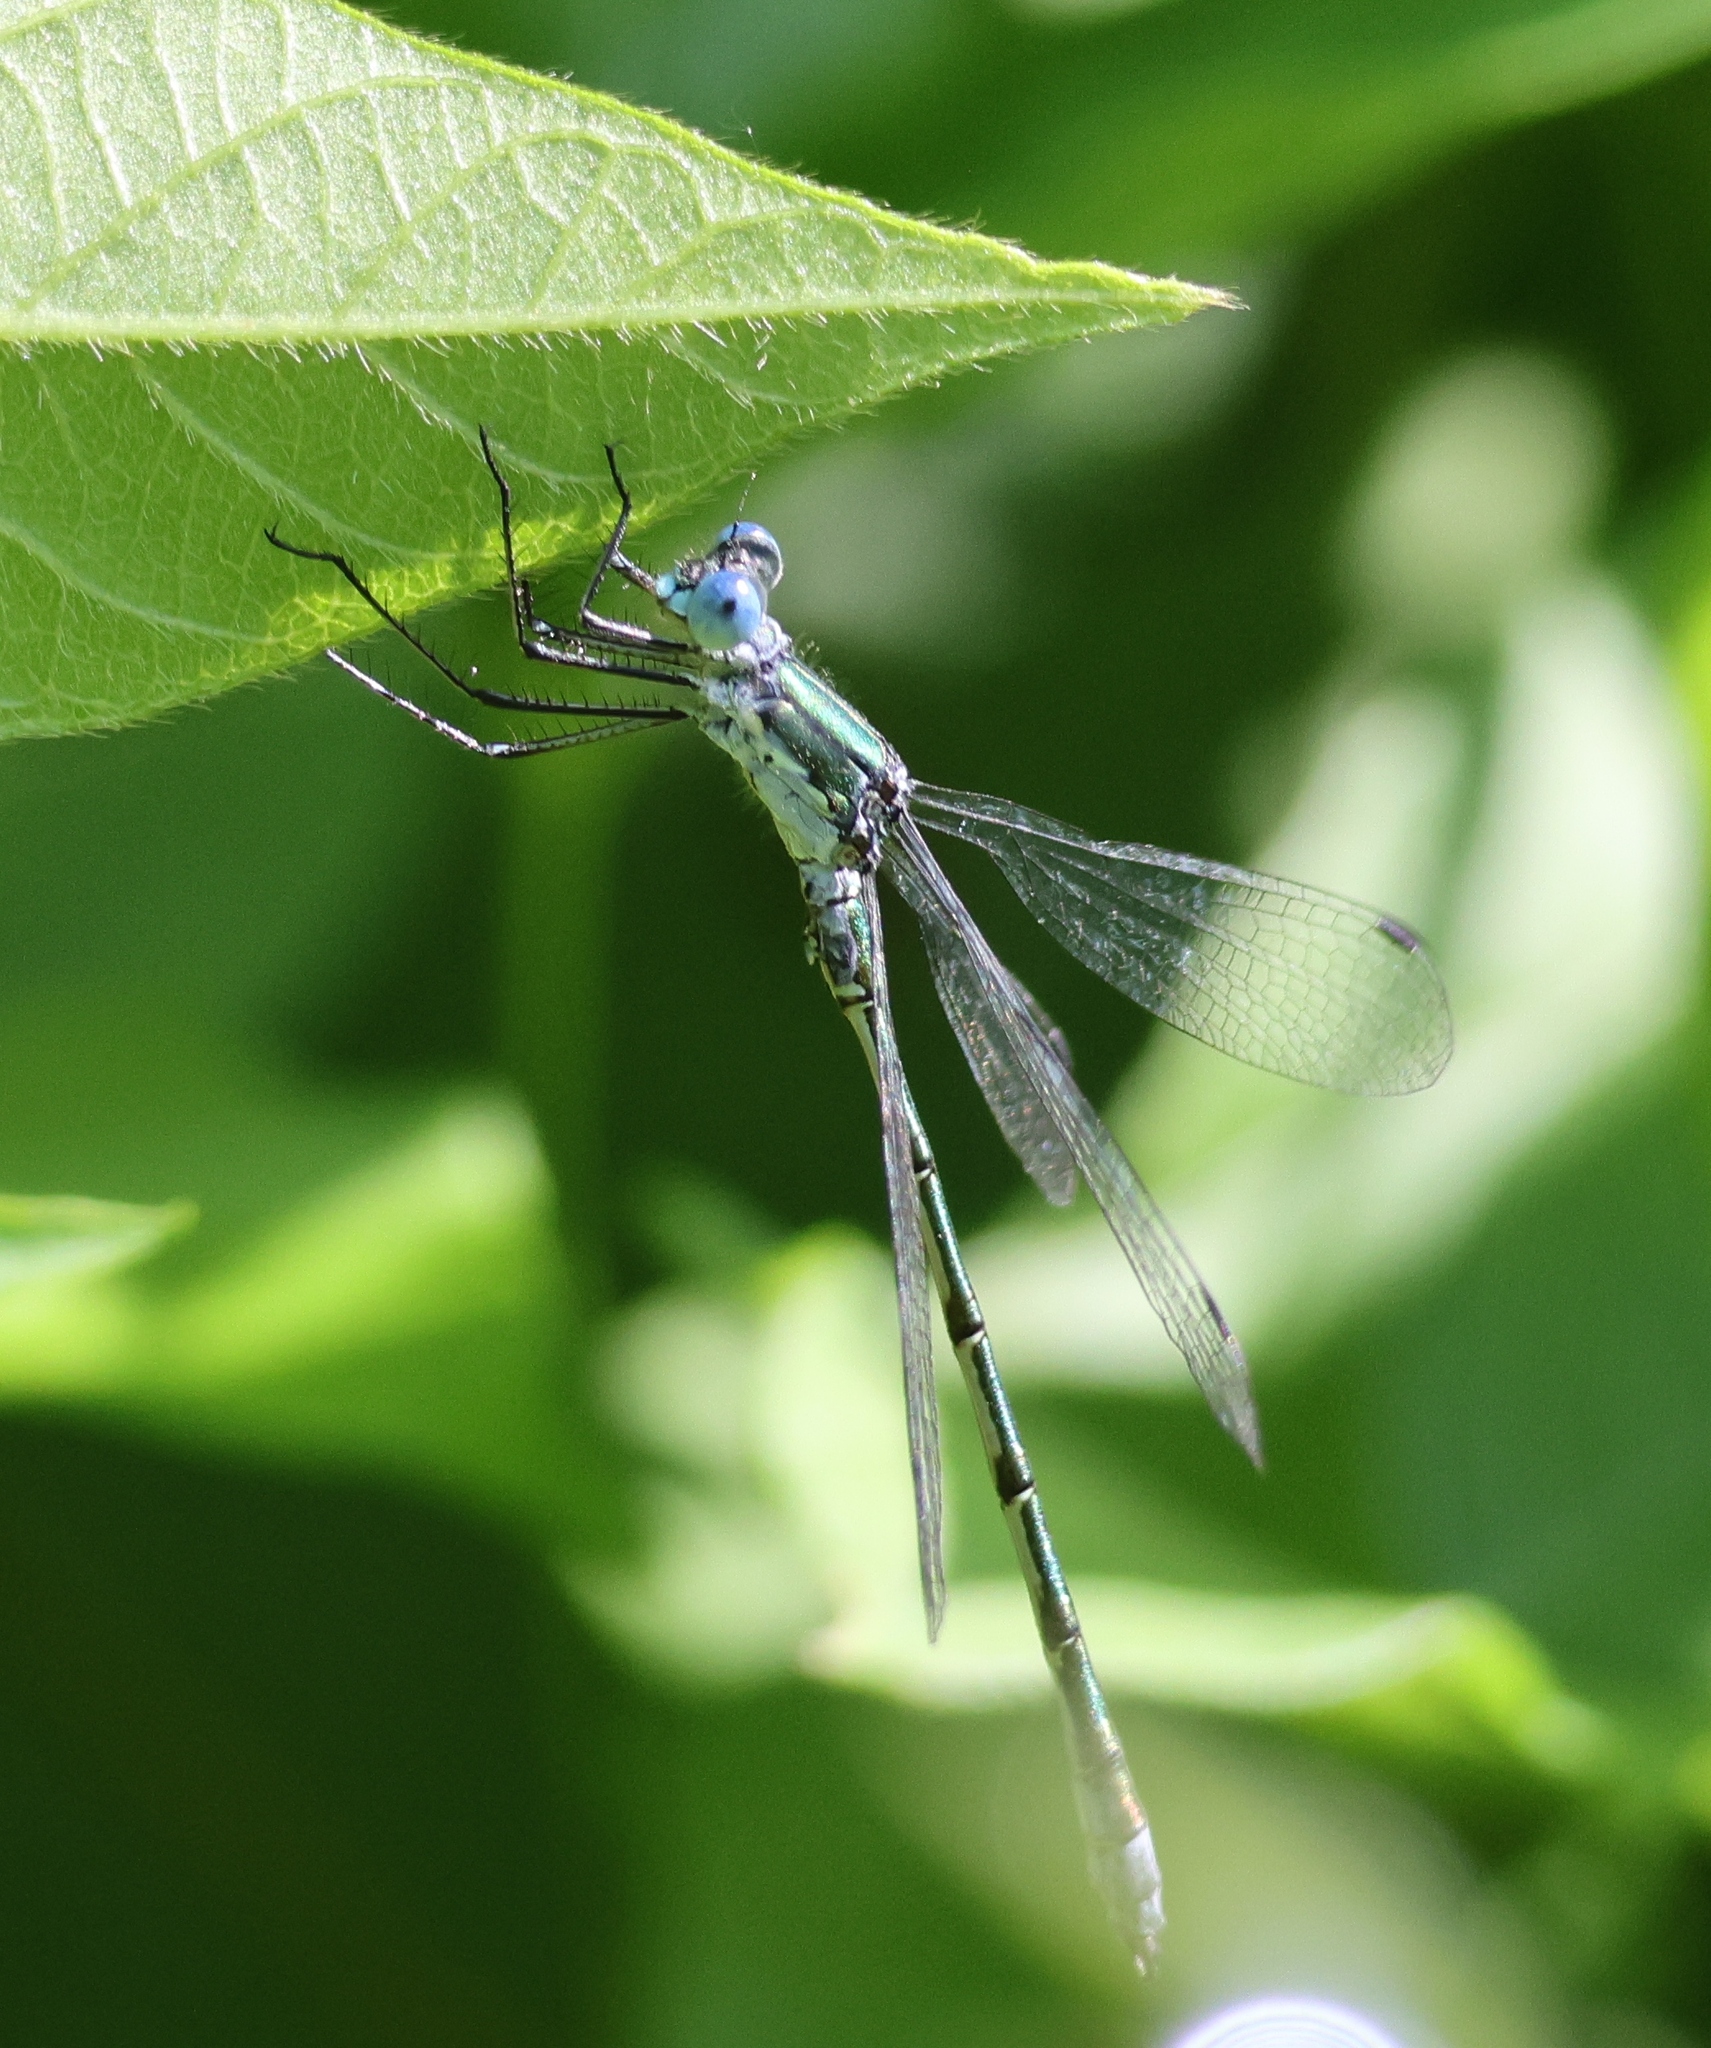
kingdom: Animalia
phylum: Arthropoda
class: Insecta
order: Odonata
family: Lestidae
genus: Lestes
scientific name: Lestes dryas
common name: Scarce emerald damselfly
